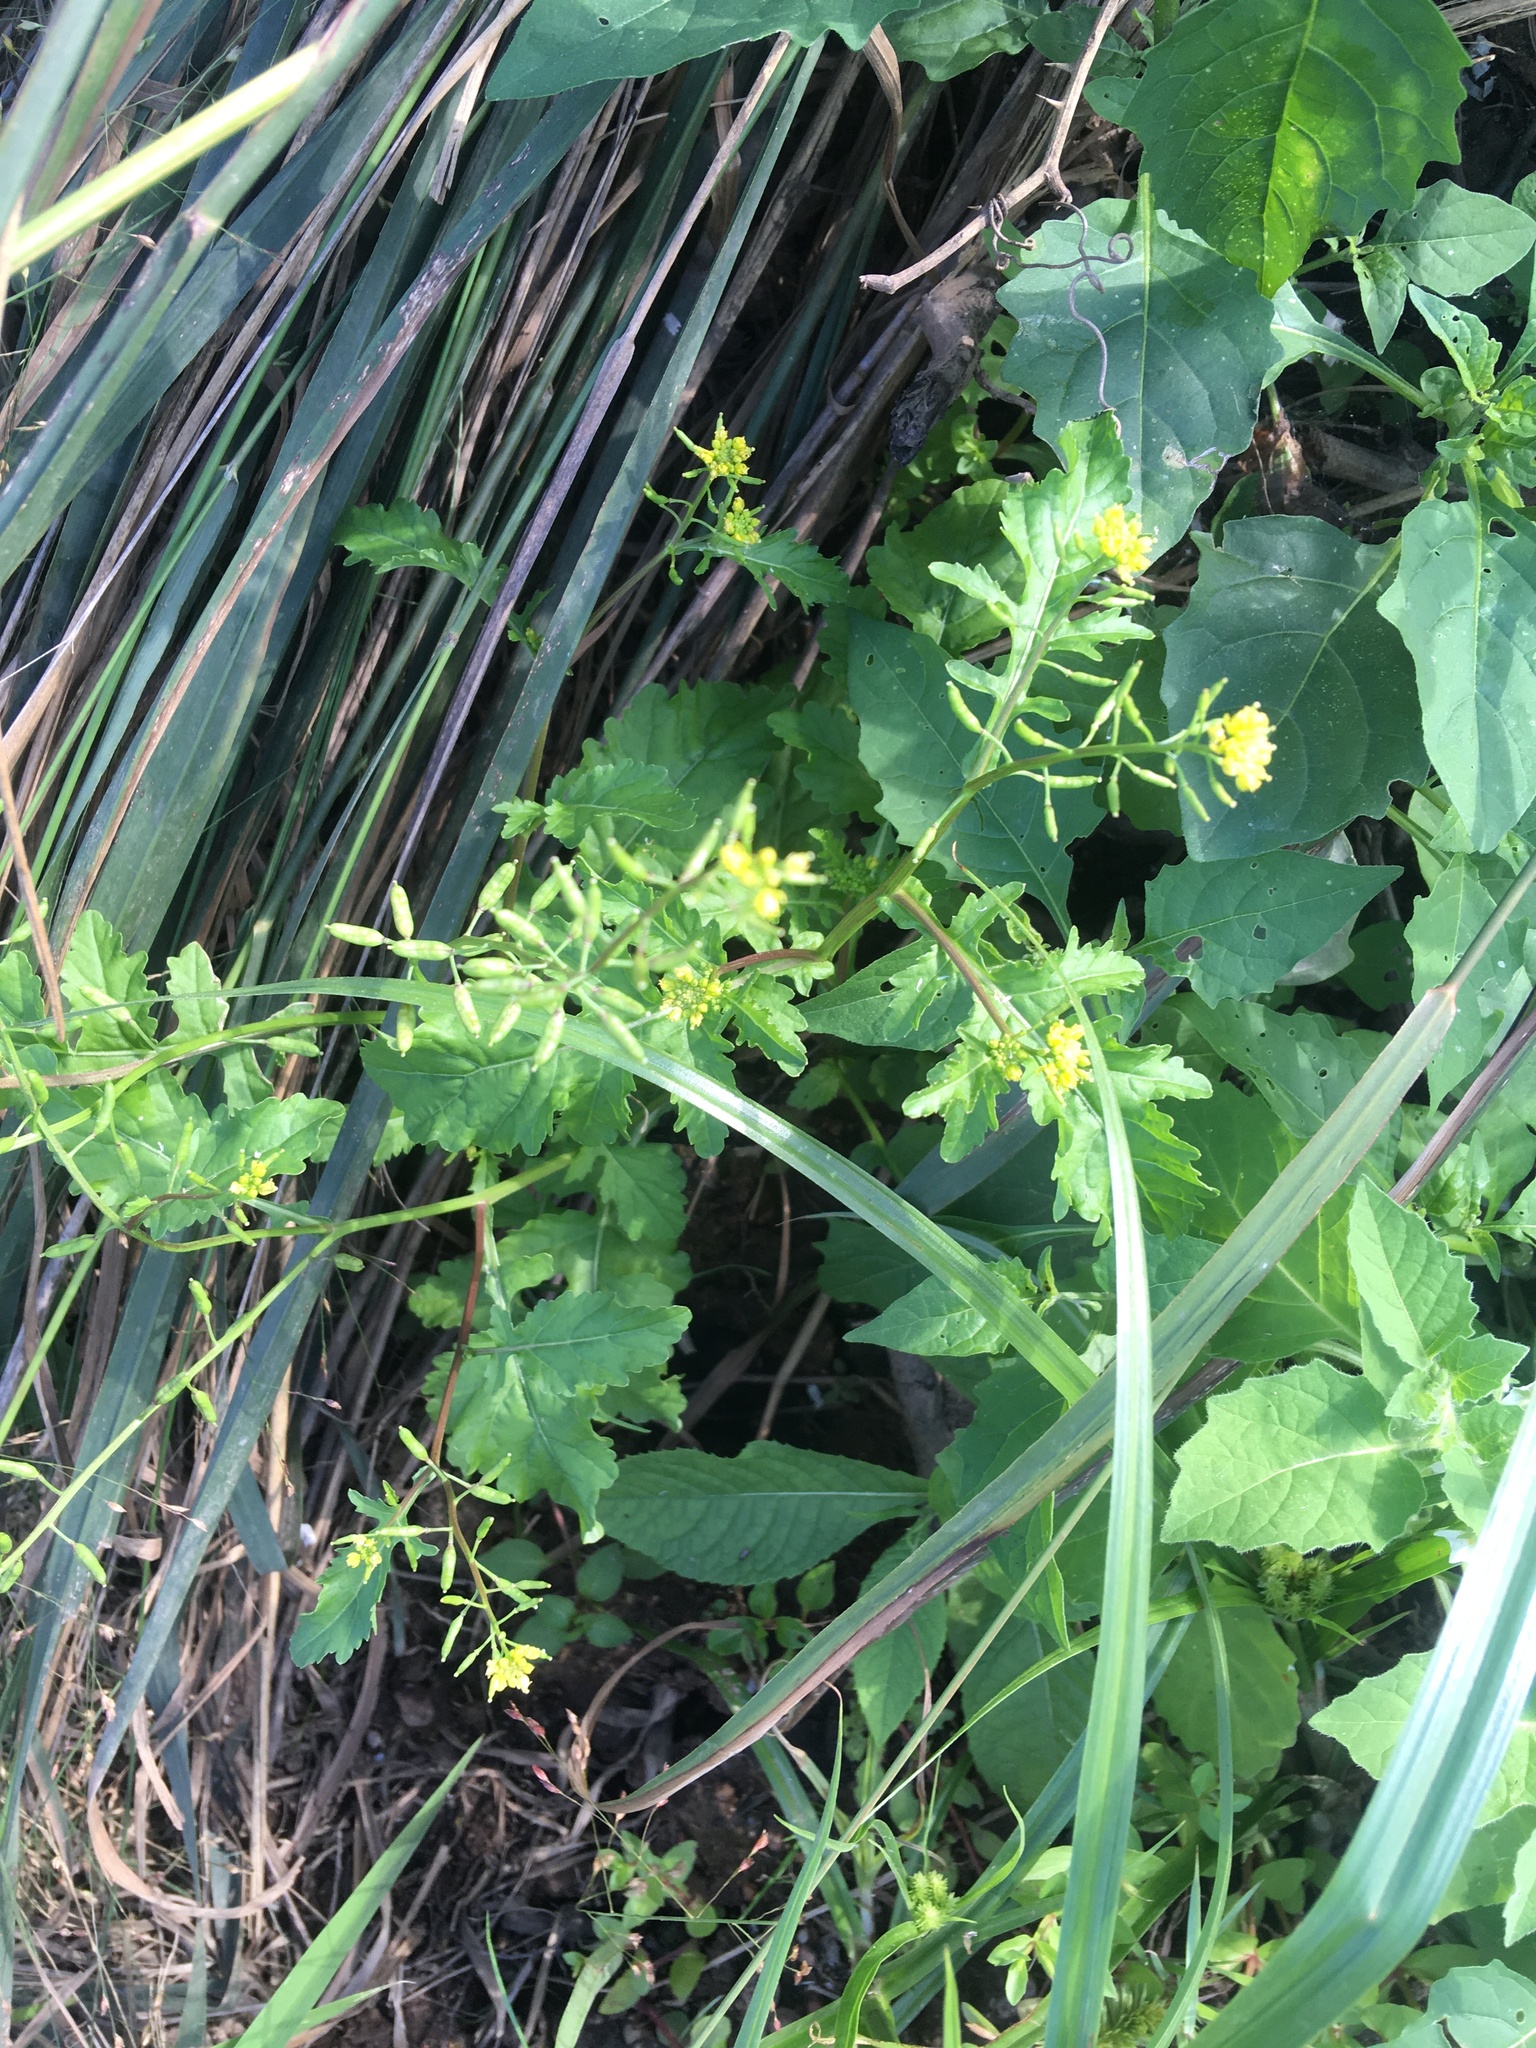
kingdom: Plantae
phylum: Tracheophyta
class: Magnoliopsida
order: Brassicales
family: Brassicaceae
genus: Rorippa
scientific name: Rorippa palustris
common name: Marsh yellow-cress
